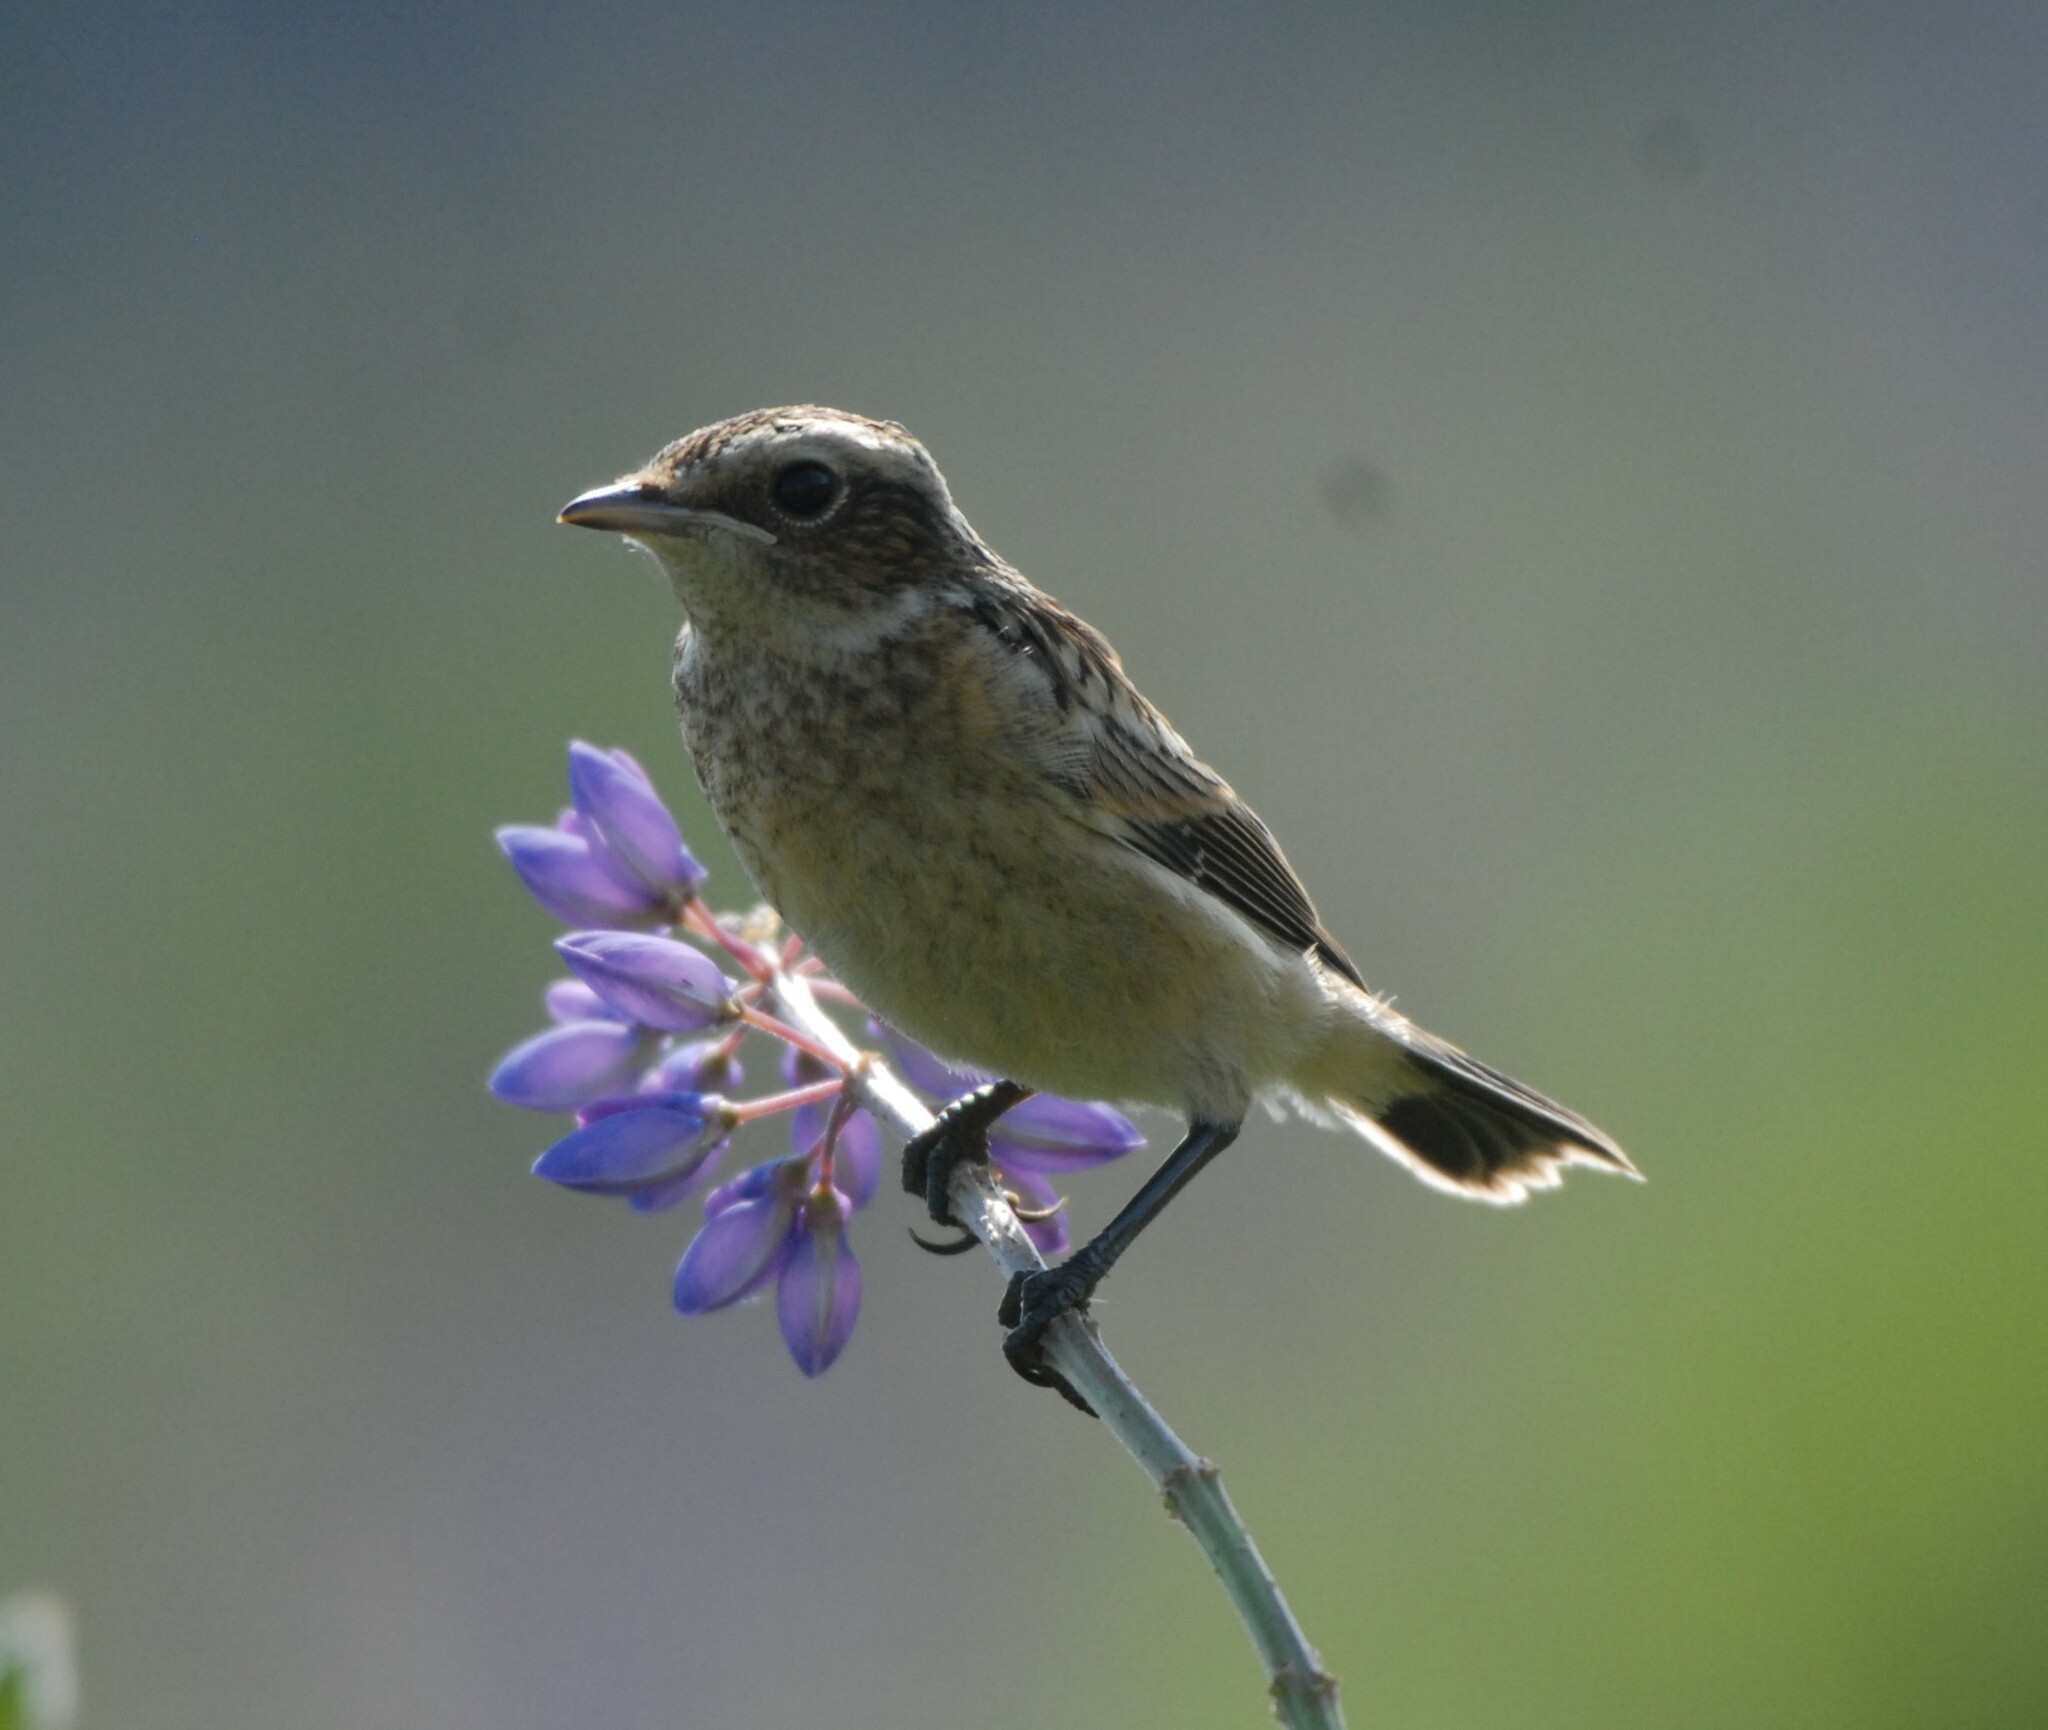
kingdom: Animalia
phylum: Chordata
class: Aves
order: Passeriformes
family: Muscicapidae
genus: Saxicola
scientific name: Saxicola rubetra
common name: Whinchat
